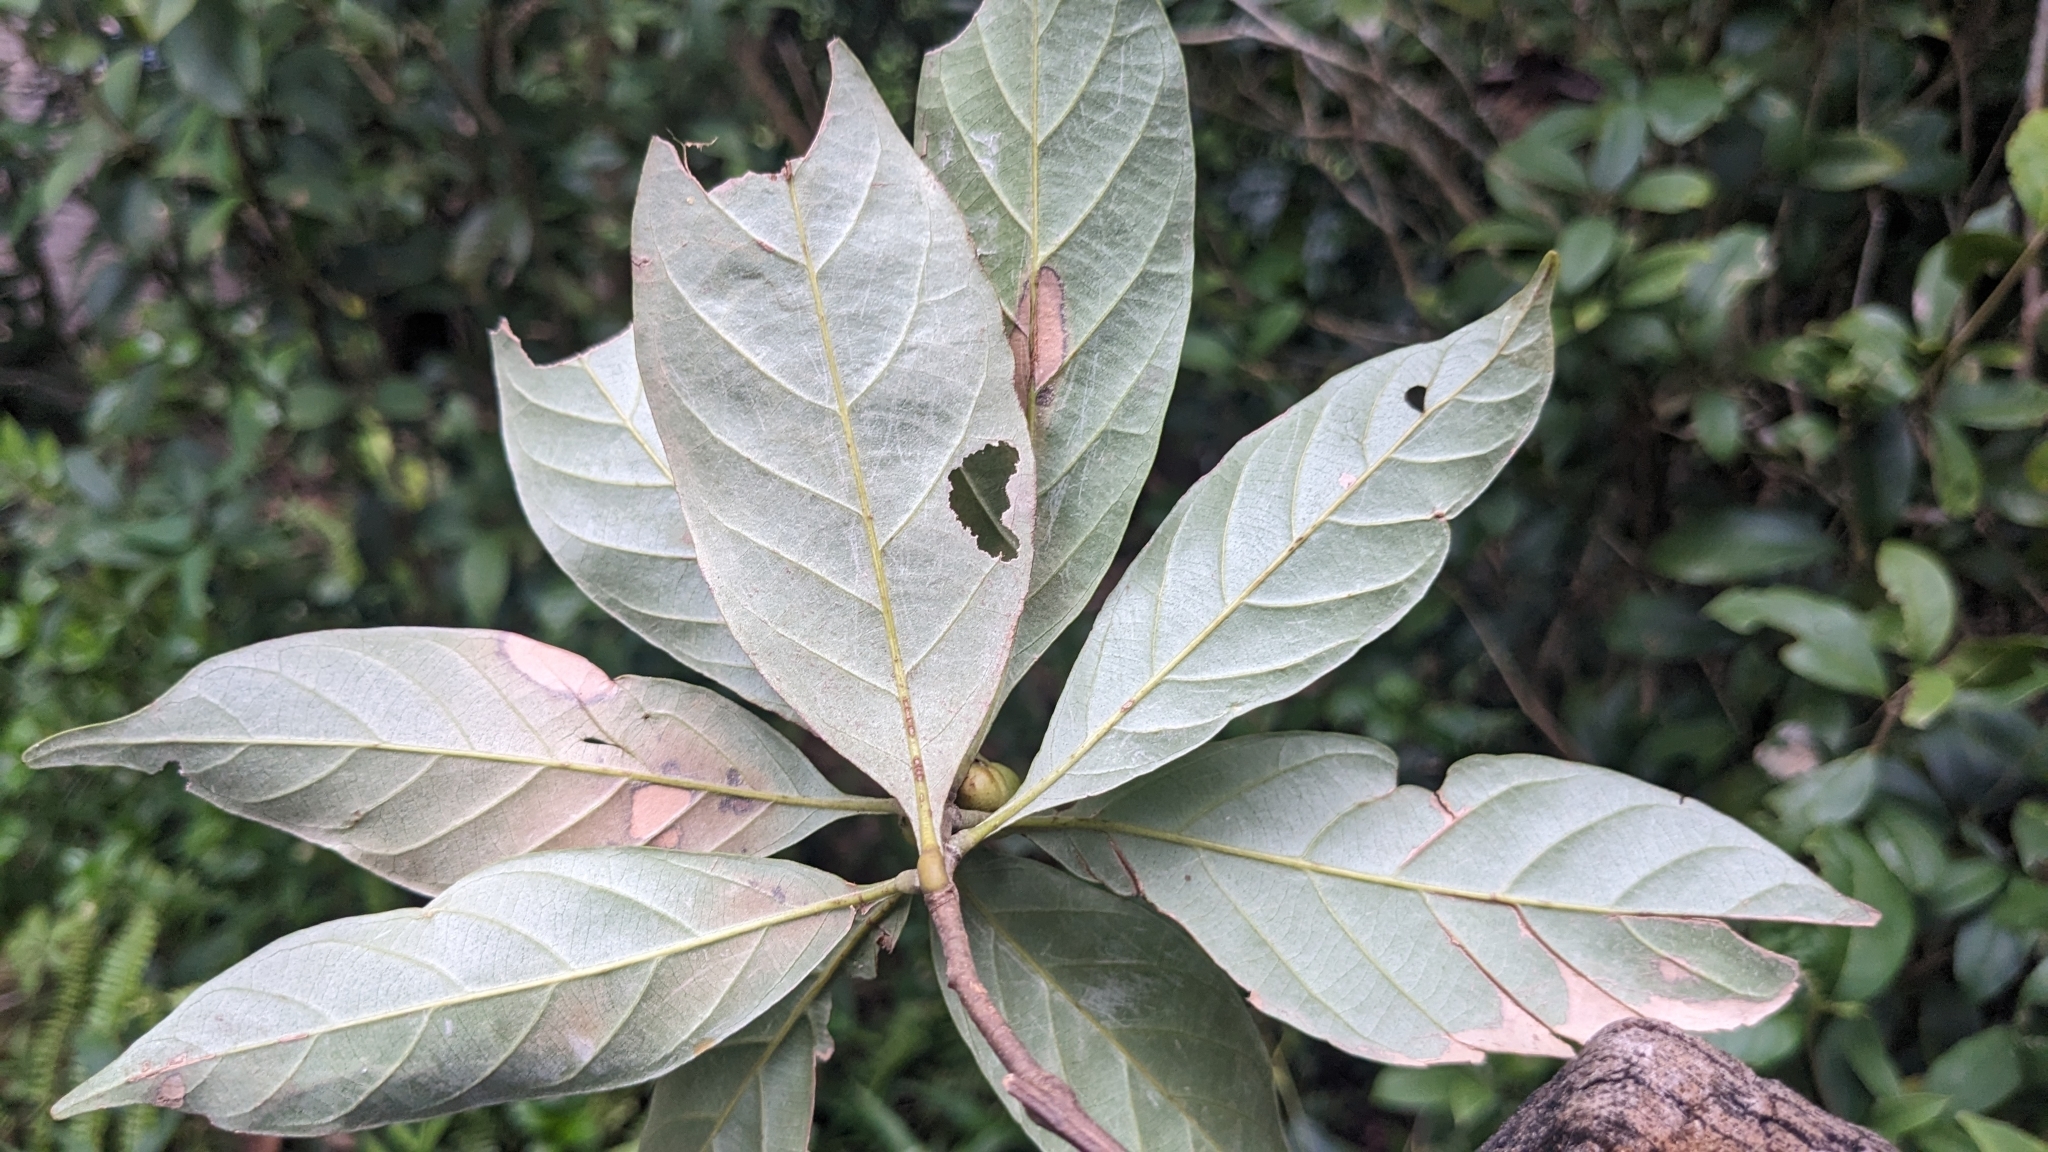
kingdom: Plantae
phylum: Tracheophyta
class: Magnoliopsida
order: Fagales
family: Fagaceae
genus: Lithocarpus
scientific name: Lithocarpus glaber
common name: Japanese-oak
